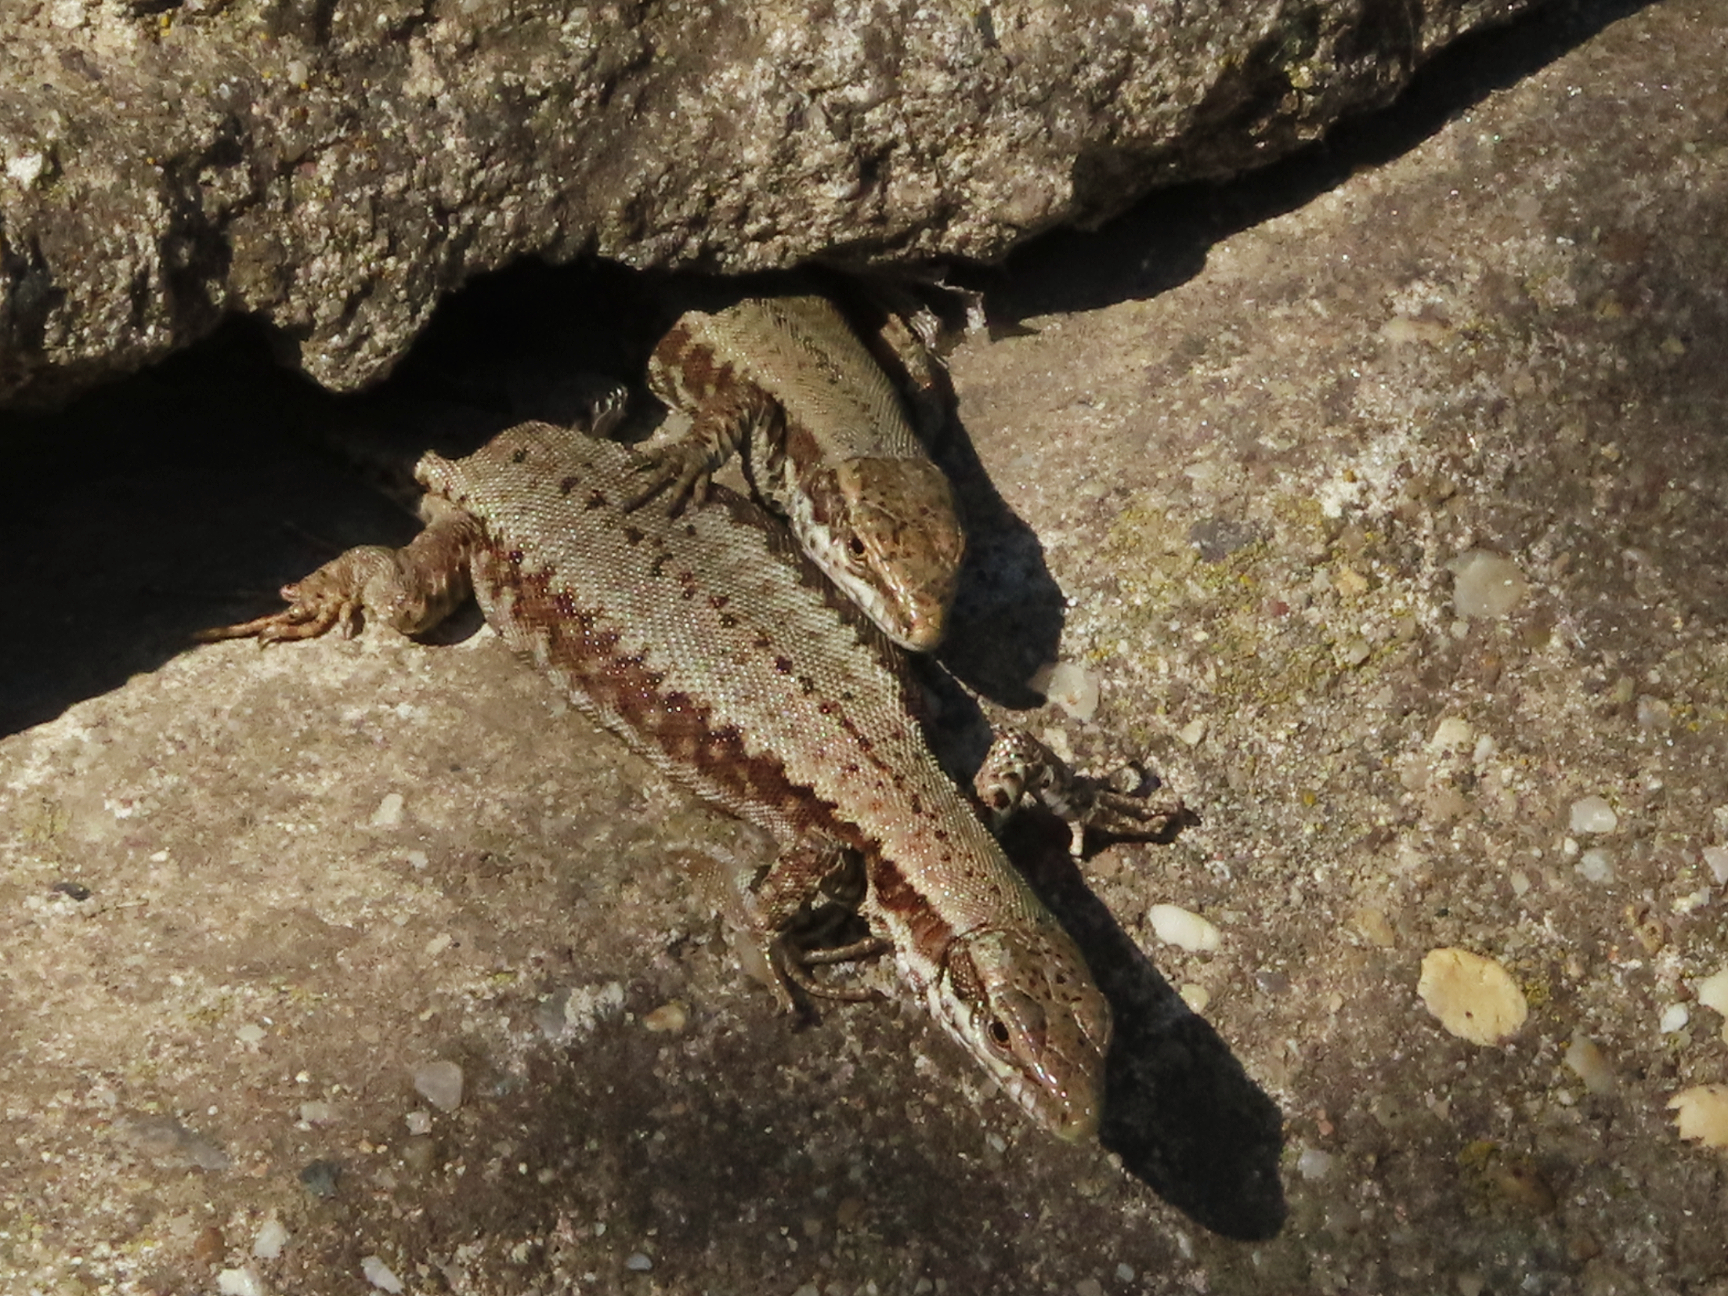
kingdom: Animalia
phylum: Chordata
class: Squamata
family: Lacertidae
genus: Podarcis
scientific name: Podarcis muralis
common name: Common wall lizard
